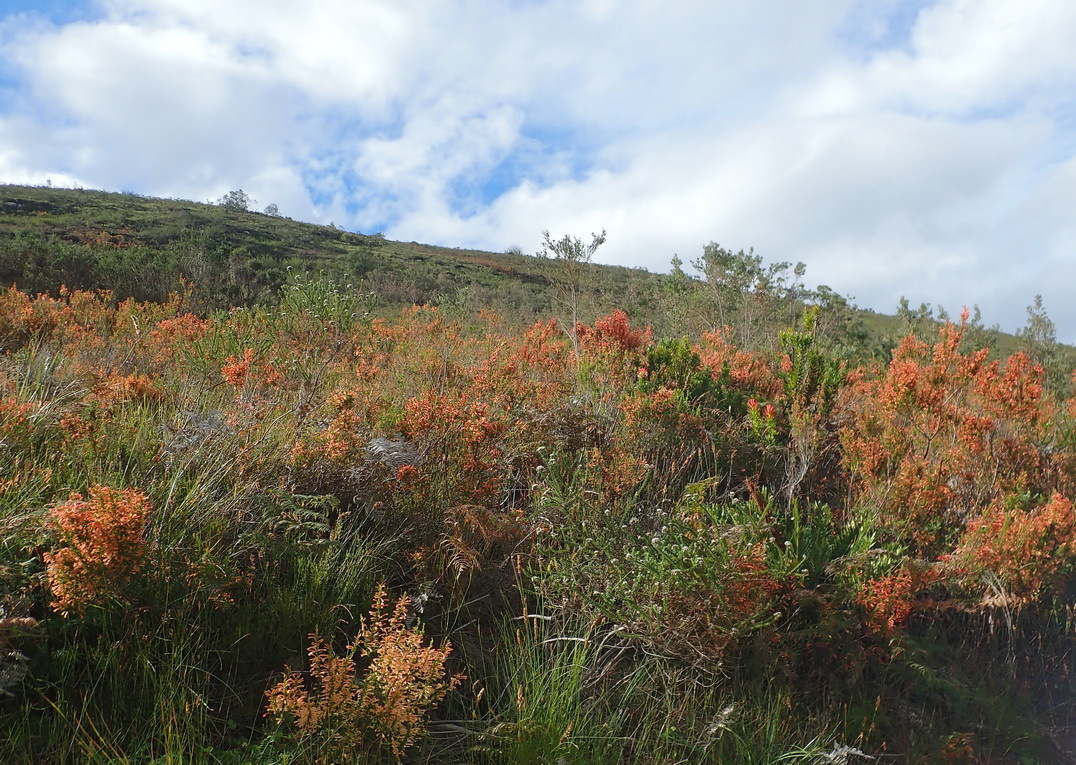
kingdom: Plantae
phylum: Tracheophyta
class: Magnoliopsida
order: Ericales
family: Ericaceae
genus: Erica
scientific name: Erica curviflora
